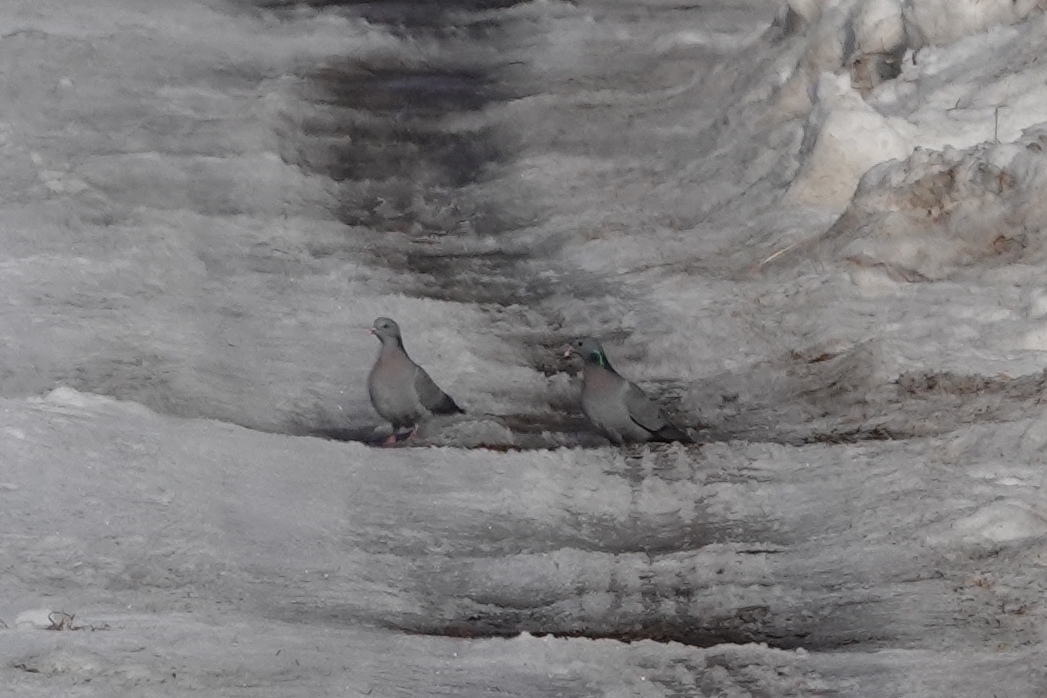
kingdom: Animalia
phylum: Chordata
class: Aves
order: Columbiformes
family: Columbidae
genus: Columba
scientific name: Columba oenas
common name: Stock dove
